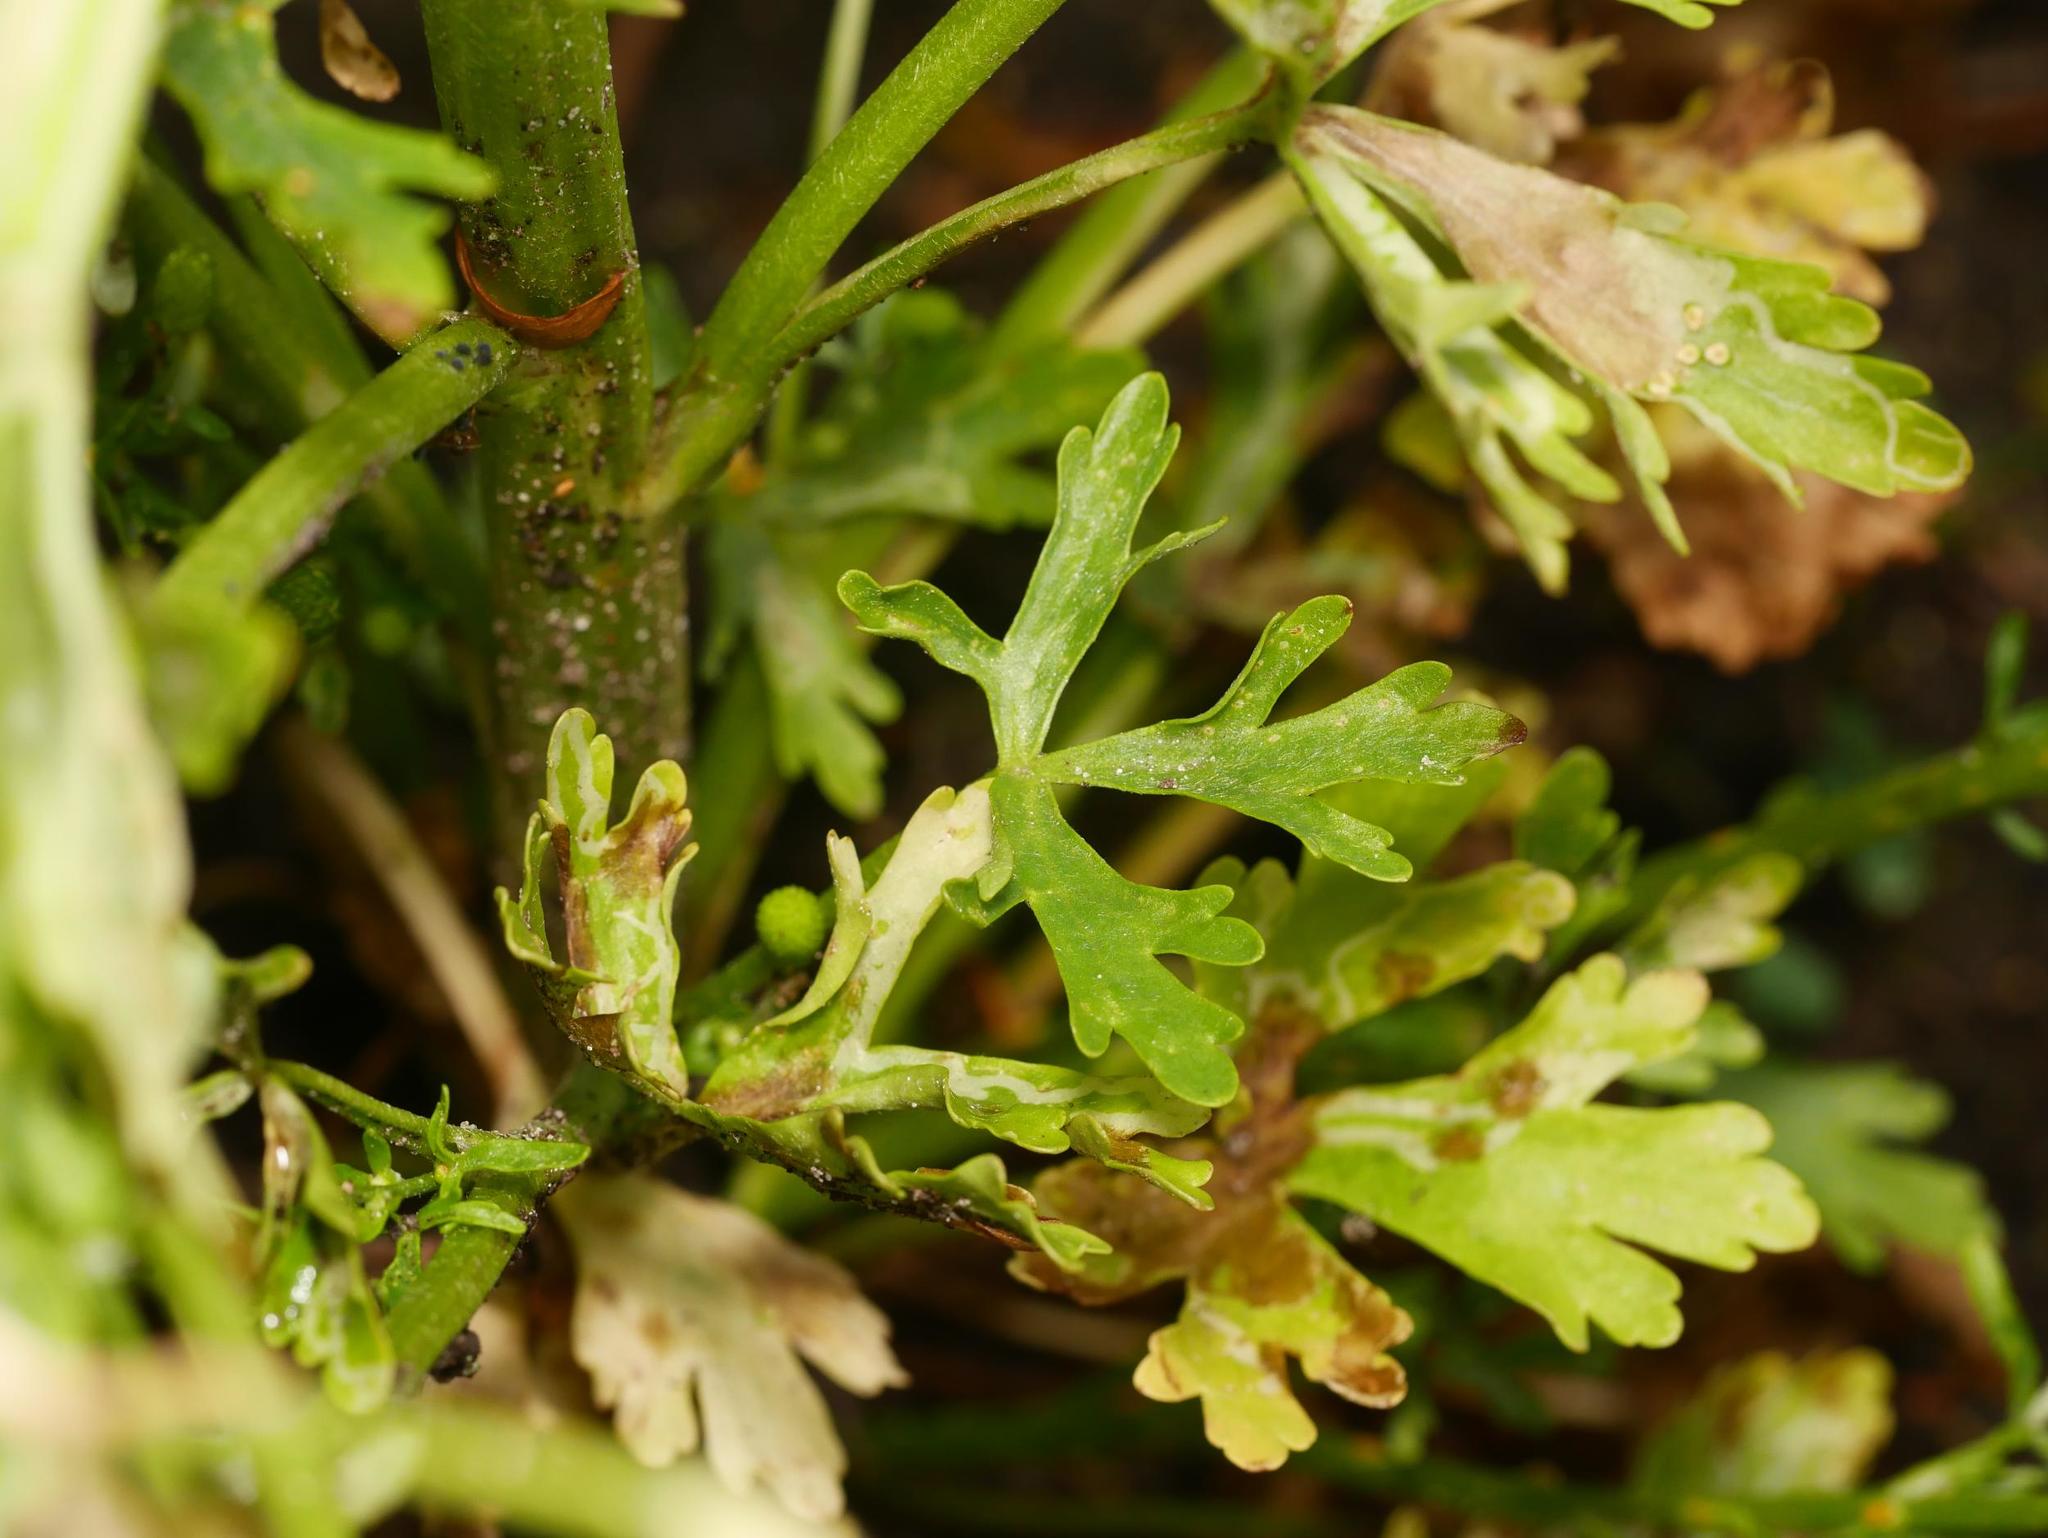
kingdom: Plantae
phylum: Tracheophyta
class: Magnoliopsida
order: Ranunculales
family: Ranunculaceae
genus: Ranunculus
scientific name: Ranunculus sceleratus
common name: Celery-leaved buttercup
